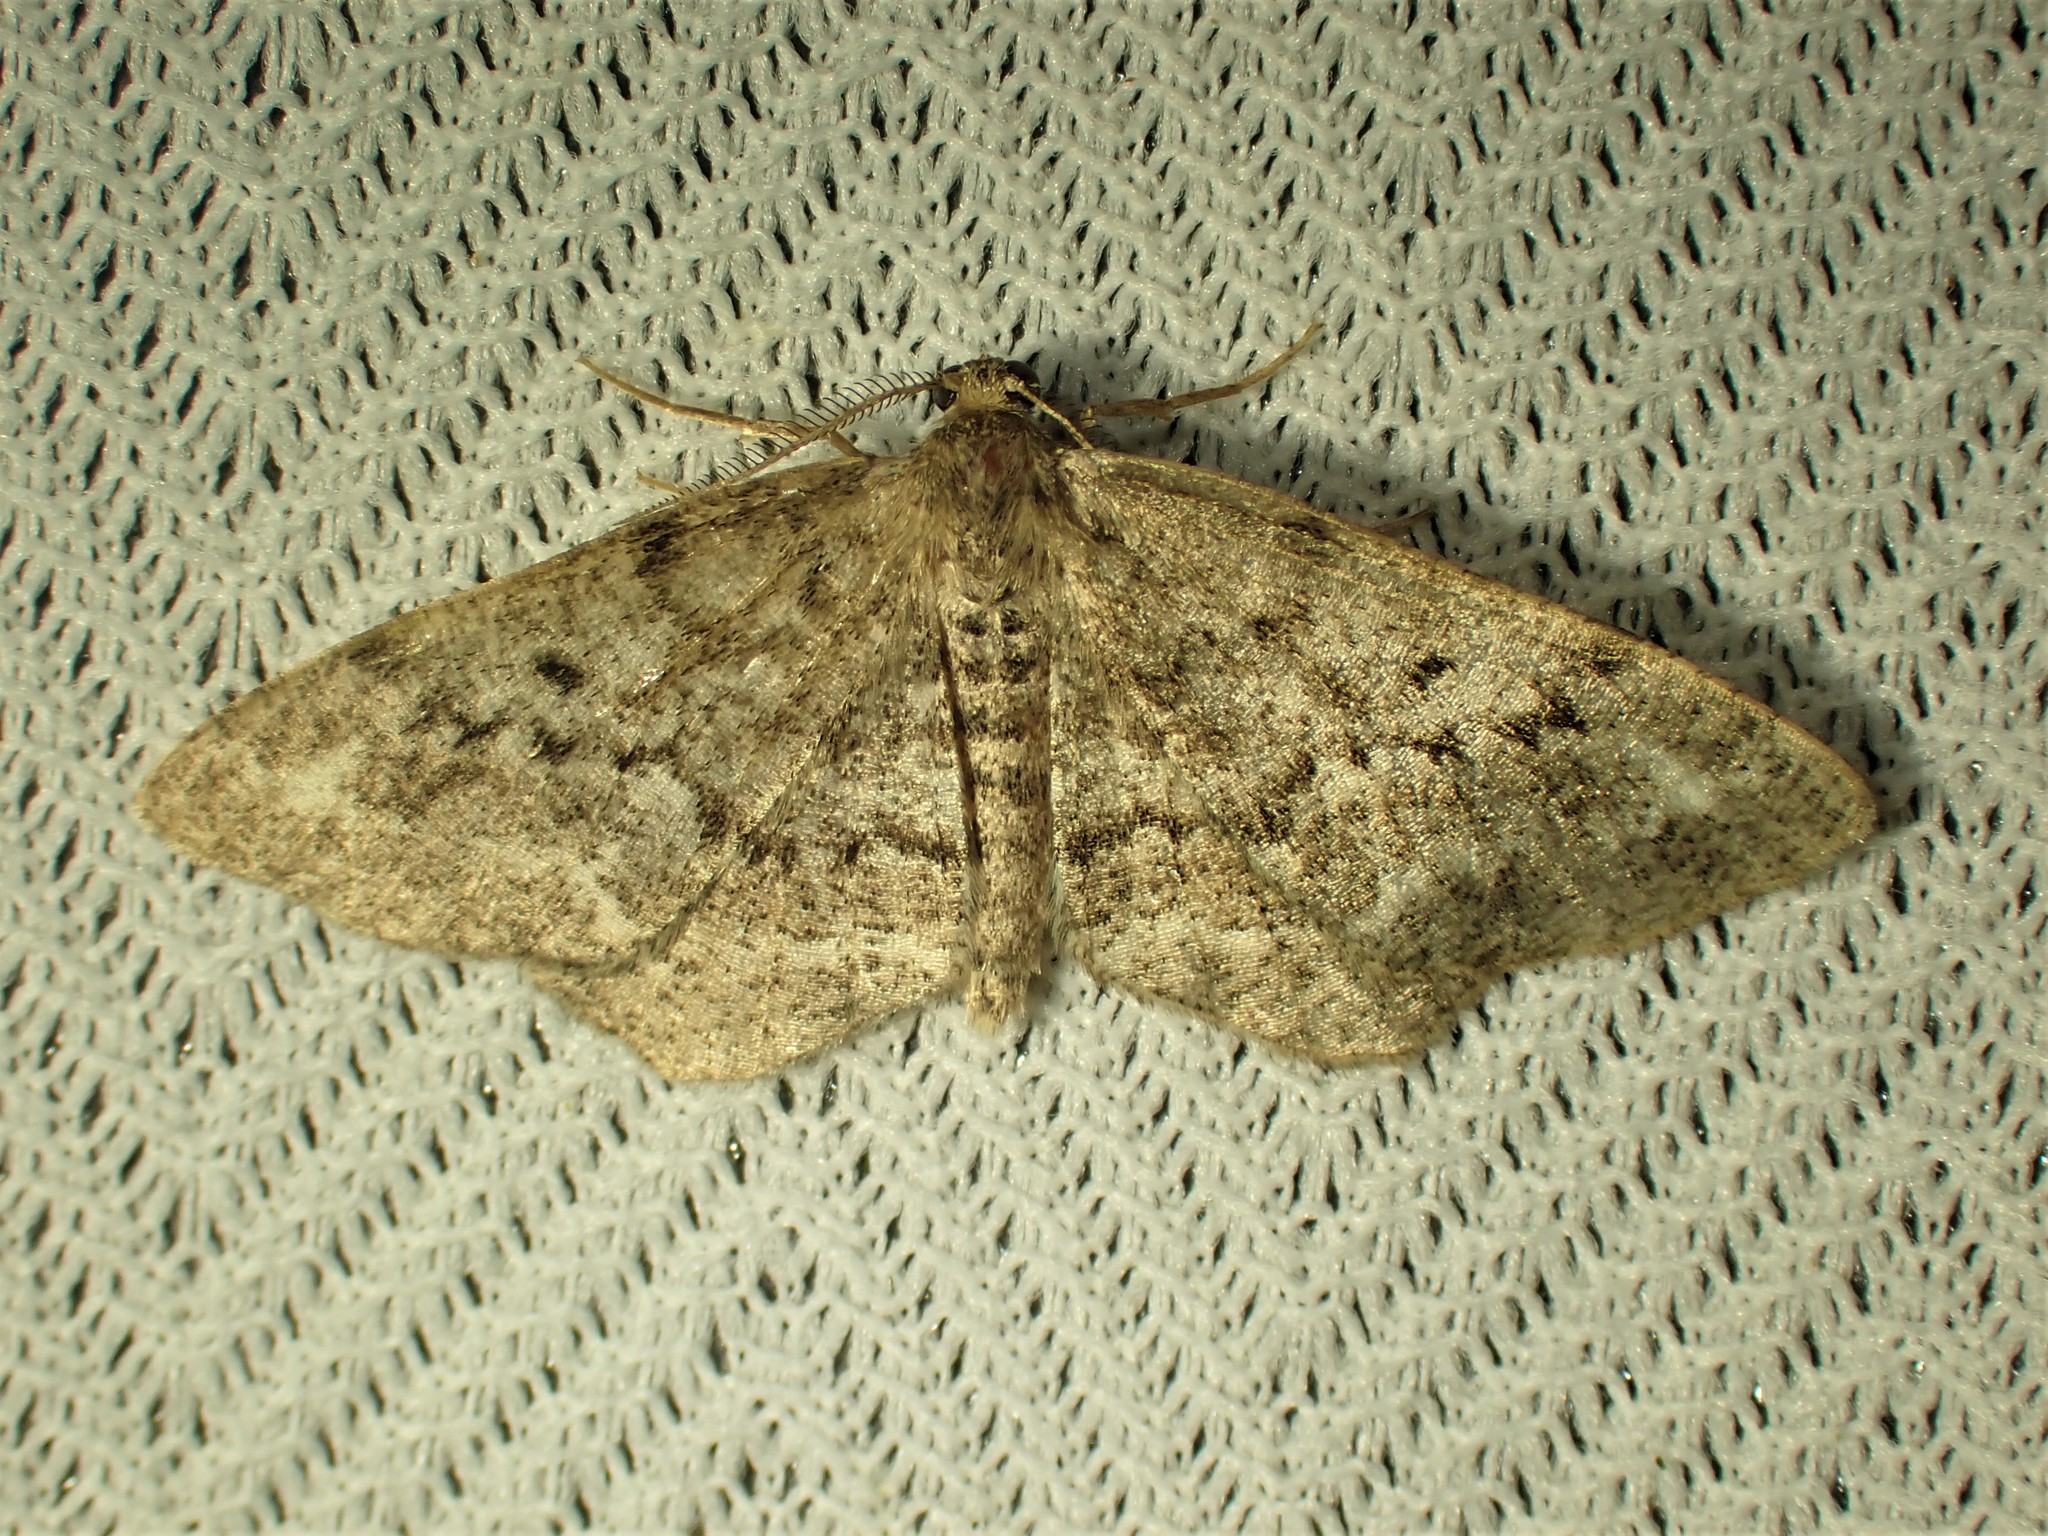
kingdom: Animalia
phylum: Arthropoda
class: Insecta
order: Lepidoptera
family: Geometridae
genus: Hypagyrtis
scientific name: Hypagyrtis piniata
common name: Pine measuringworm
